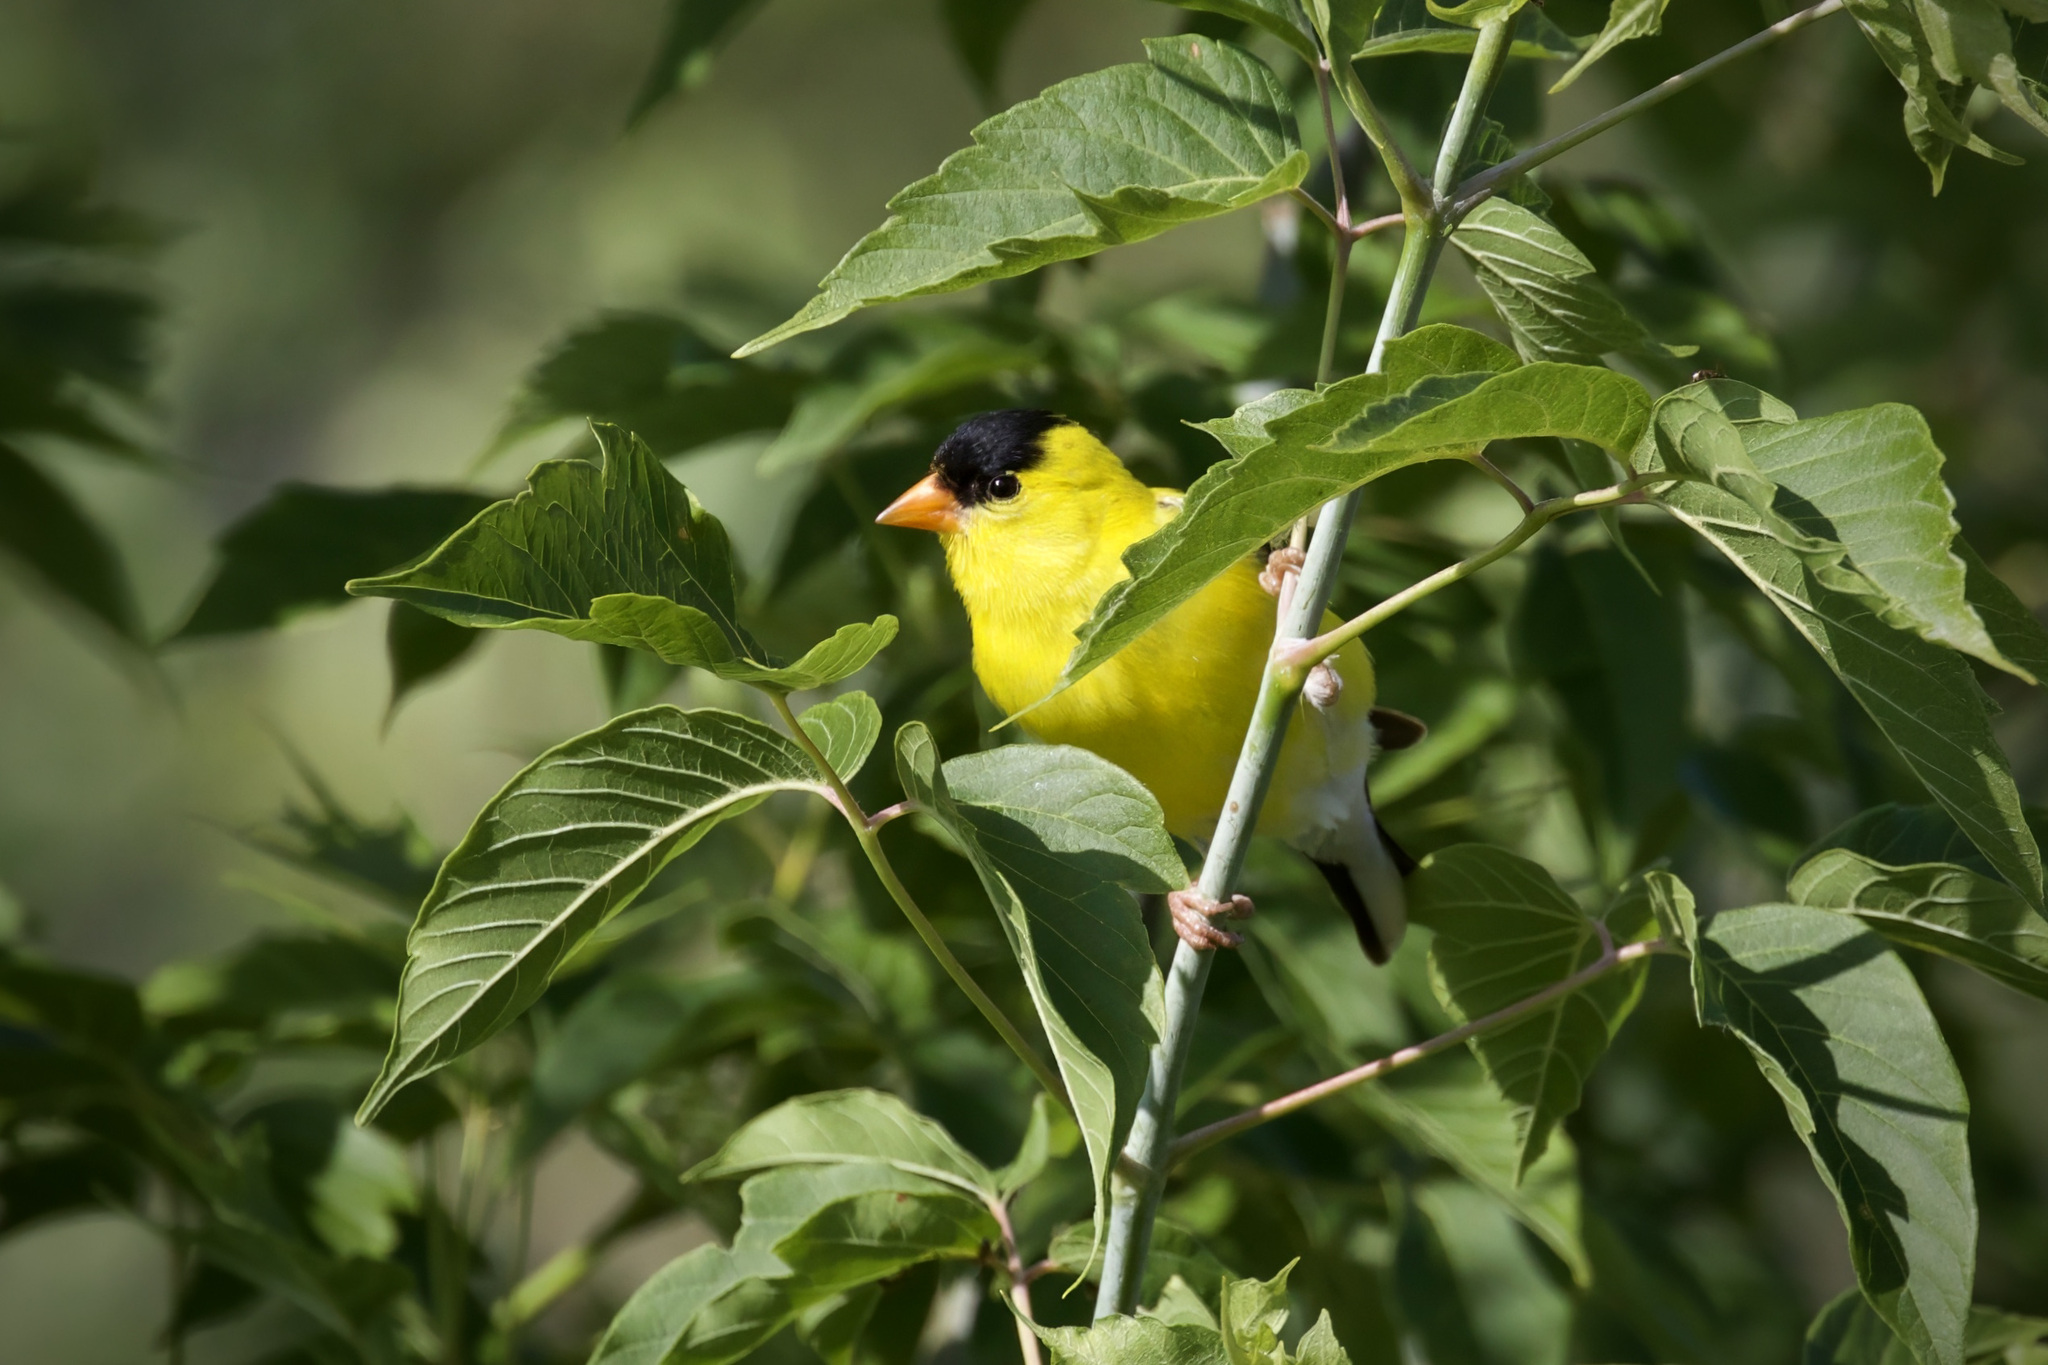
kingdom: Animalia
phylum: Chordata
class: Aves
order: Passeriformes
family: Fringillidae
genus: Spinus
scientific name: Spinus tristis
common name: American goldfinch
